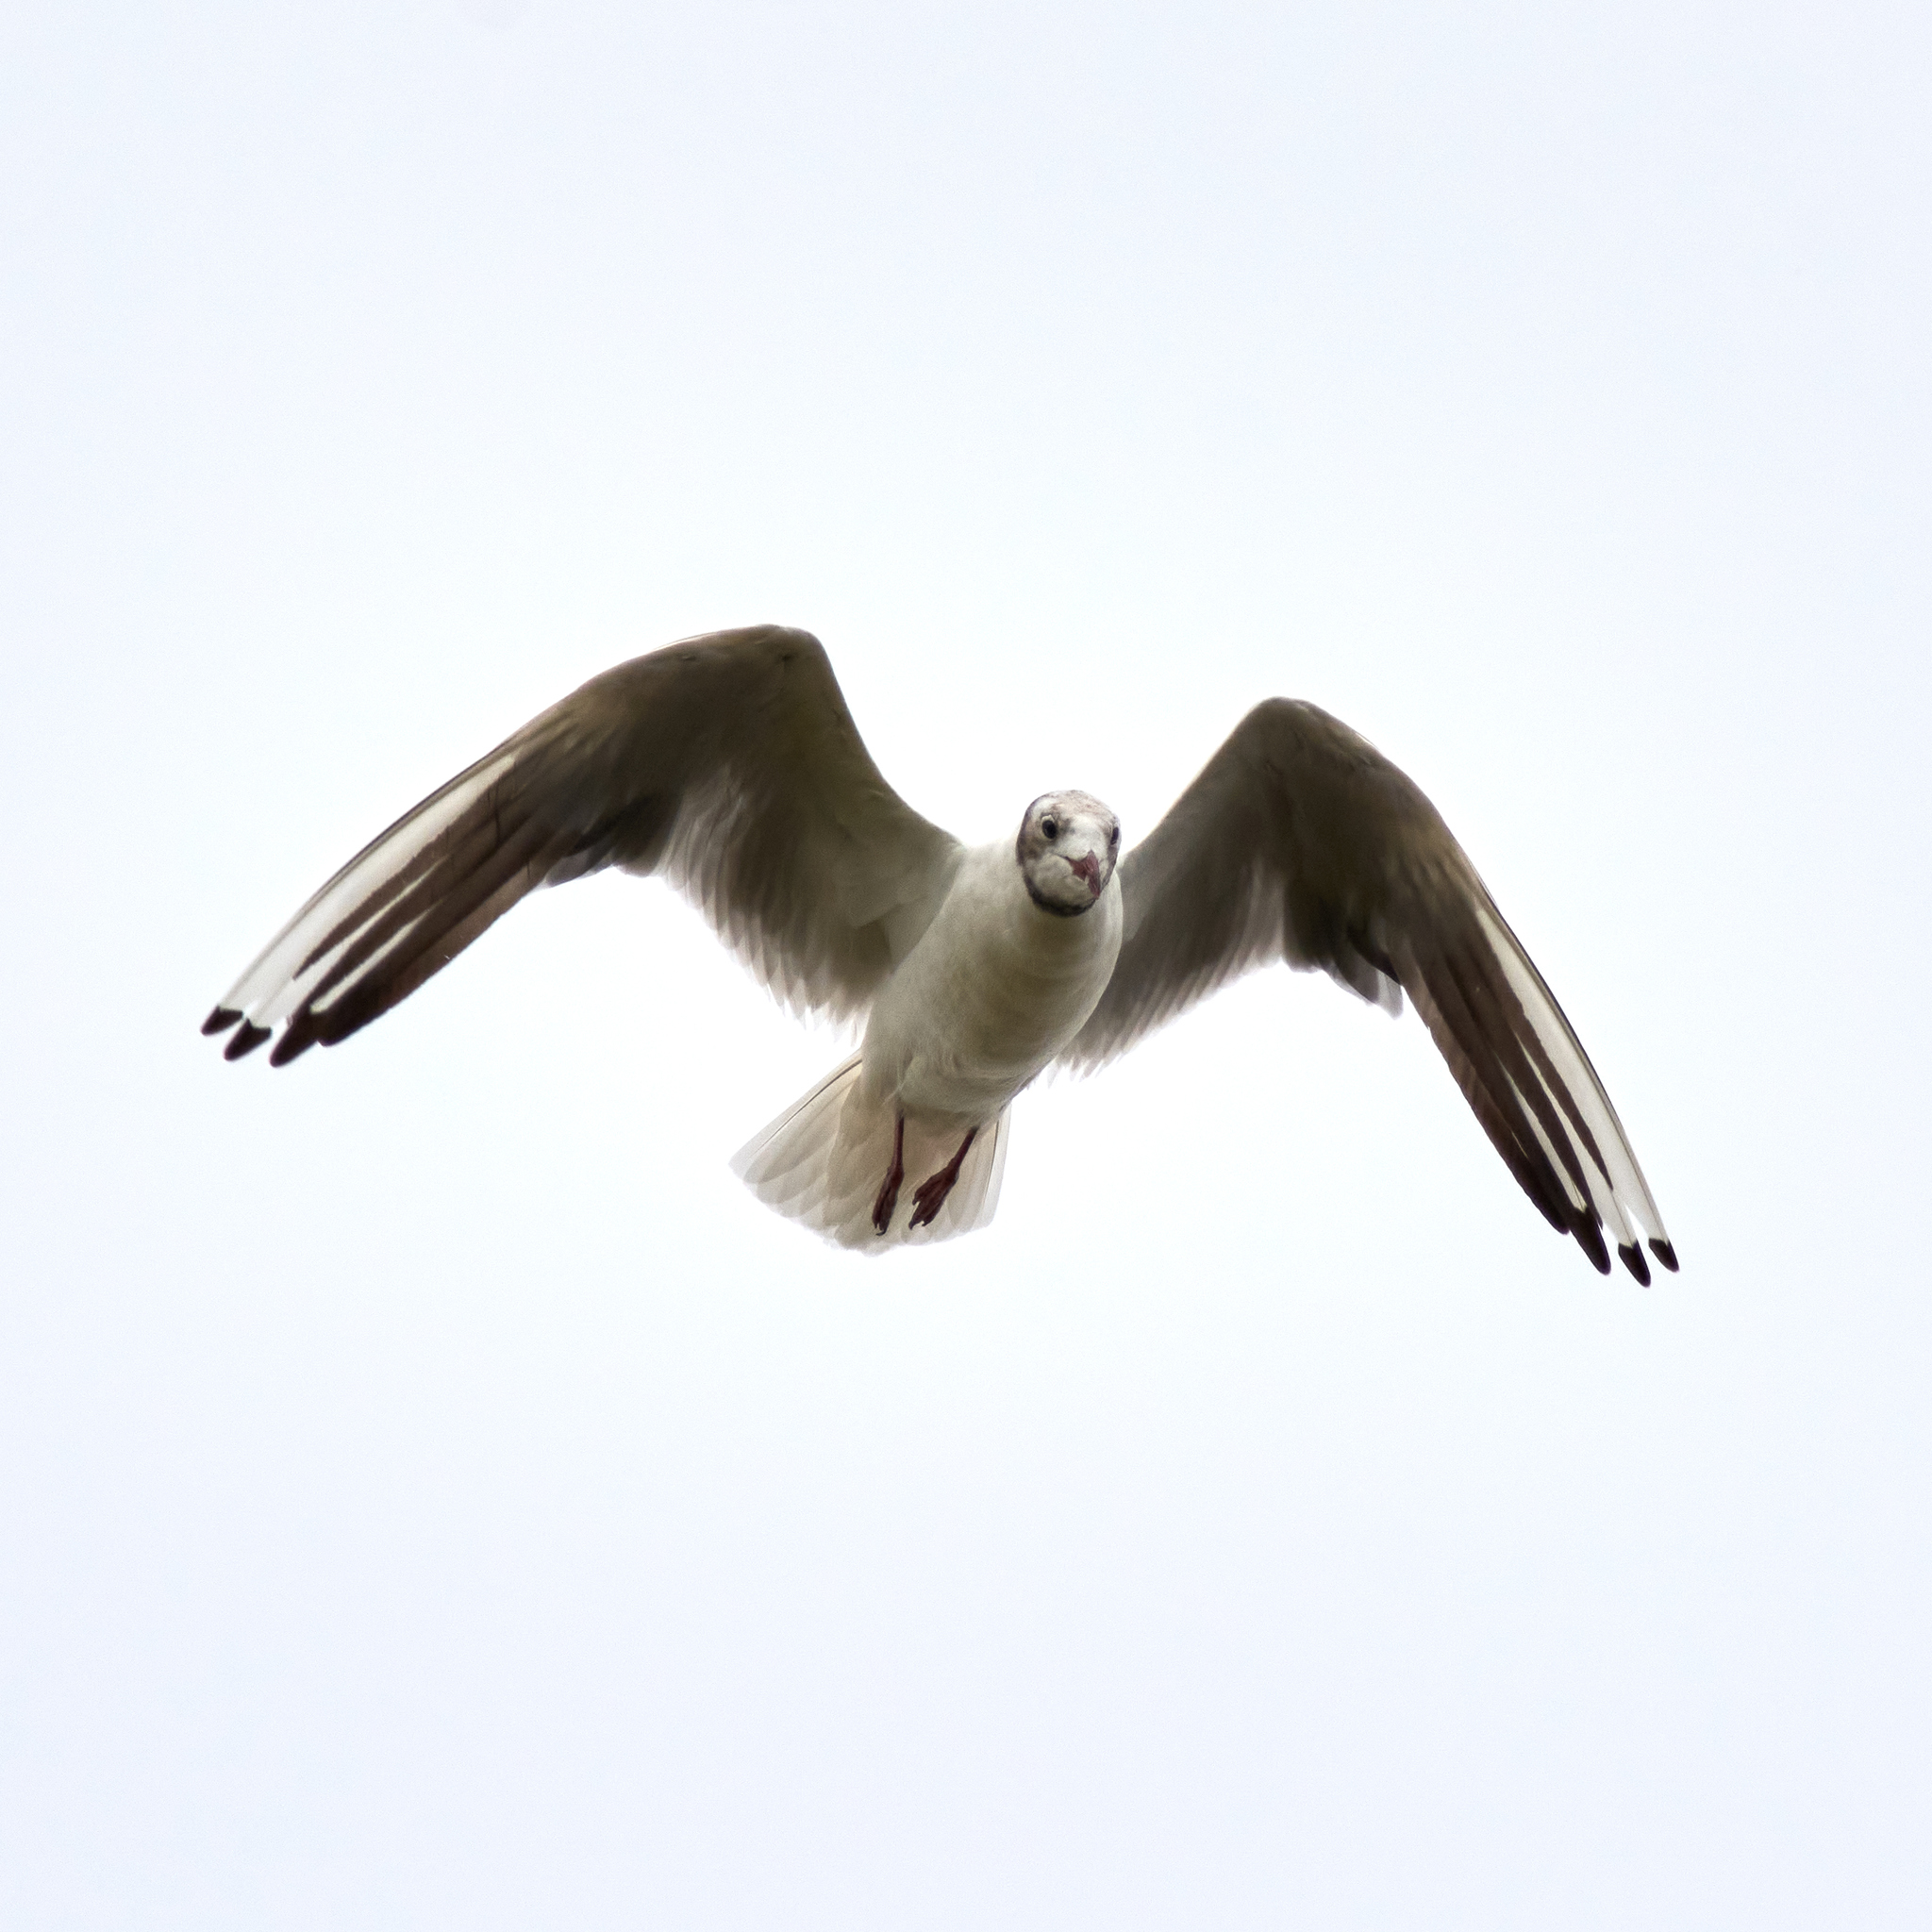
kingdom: Animalia
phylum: Chordata
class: Aves
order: Charadriiformes
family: Laridae
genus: Chroicocephalus
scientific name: Chroicocephalus ridibundus
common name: Black-headed gull
